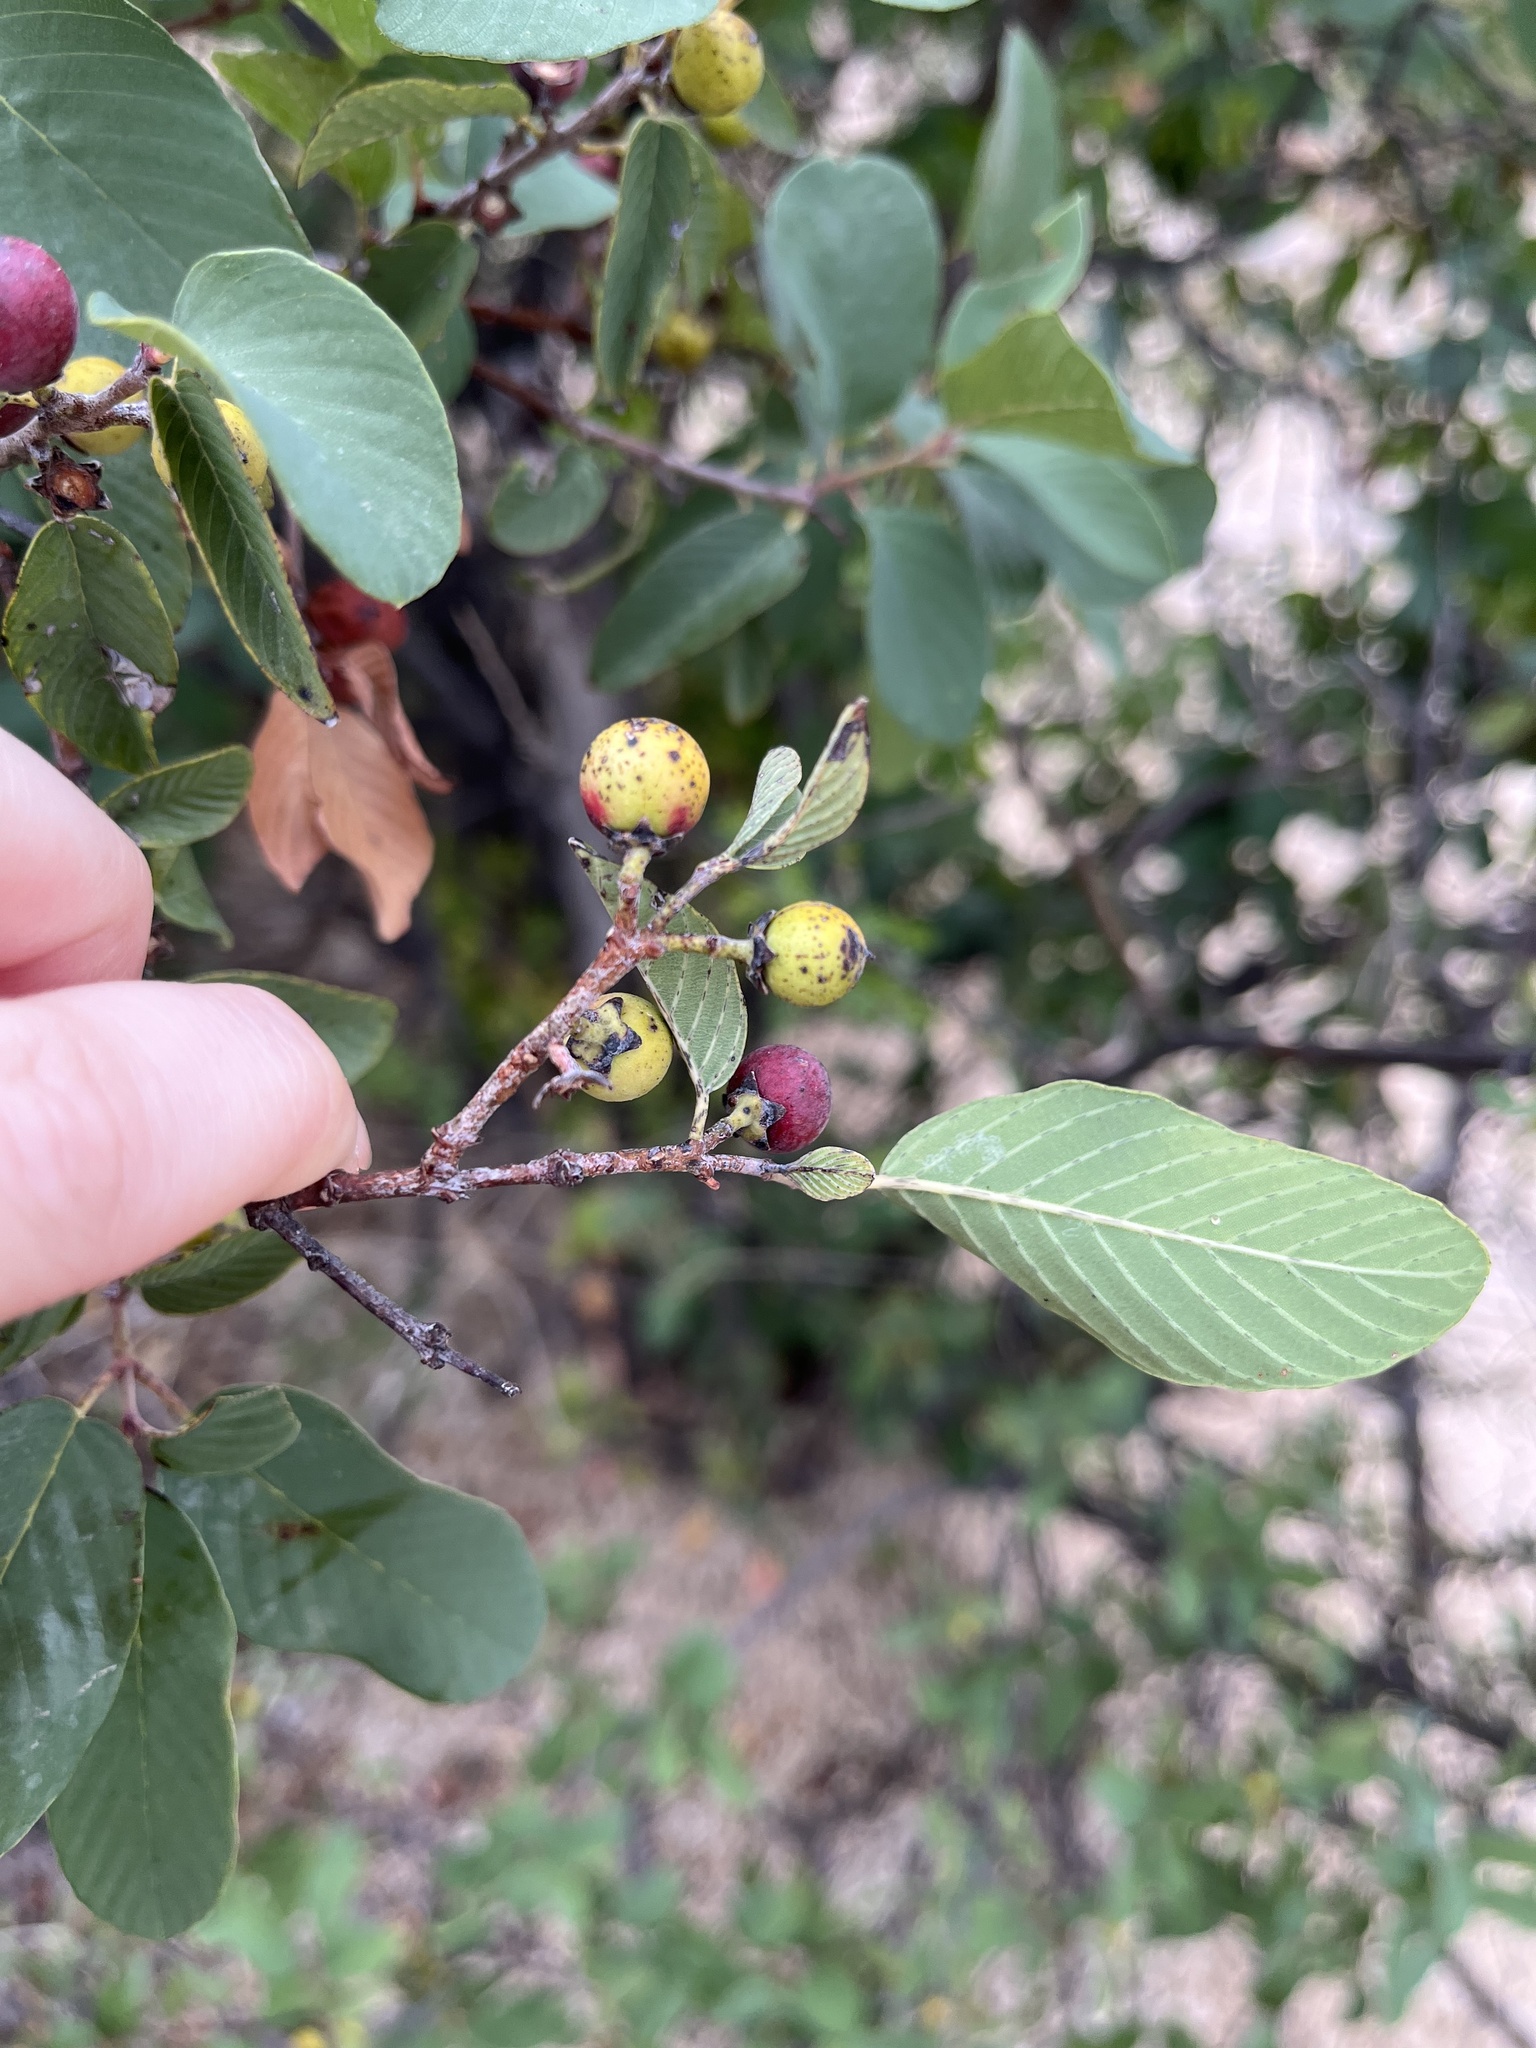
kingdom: Plantae
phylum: Tracheophyta
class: Magnoliopsida
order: Rosales
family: Rhamnaceae
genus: Karwinskia
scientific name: Karwinskia humboldtiana
